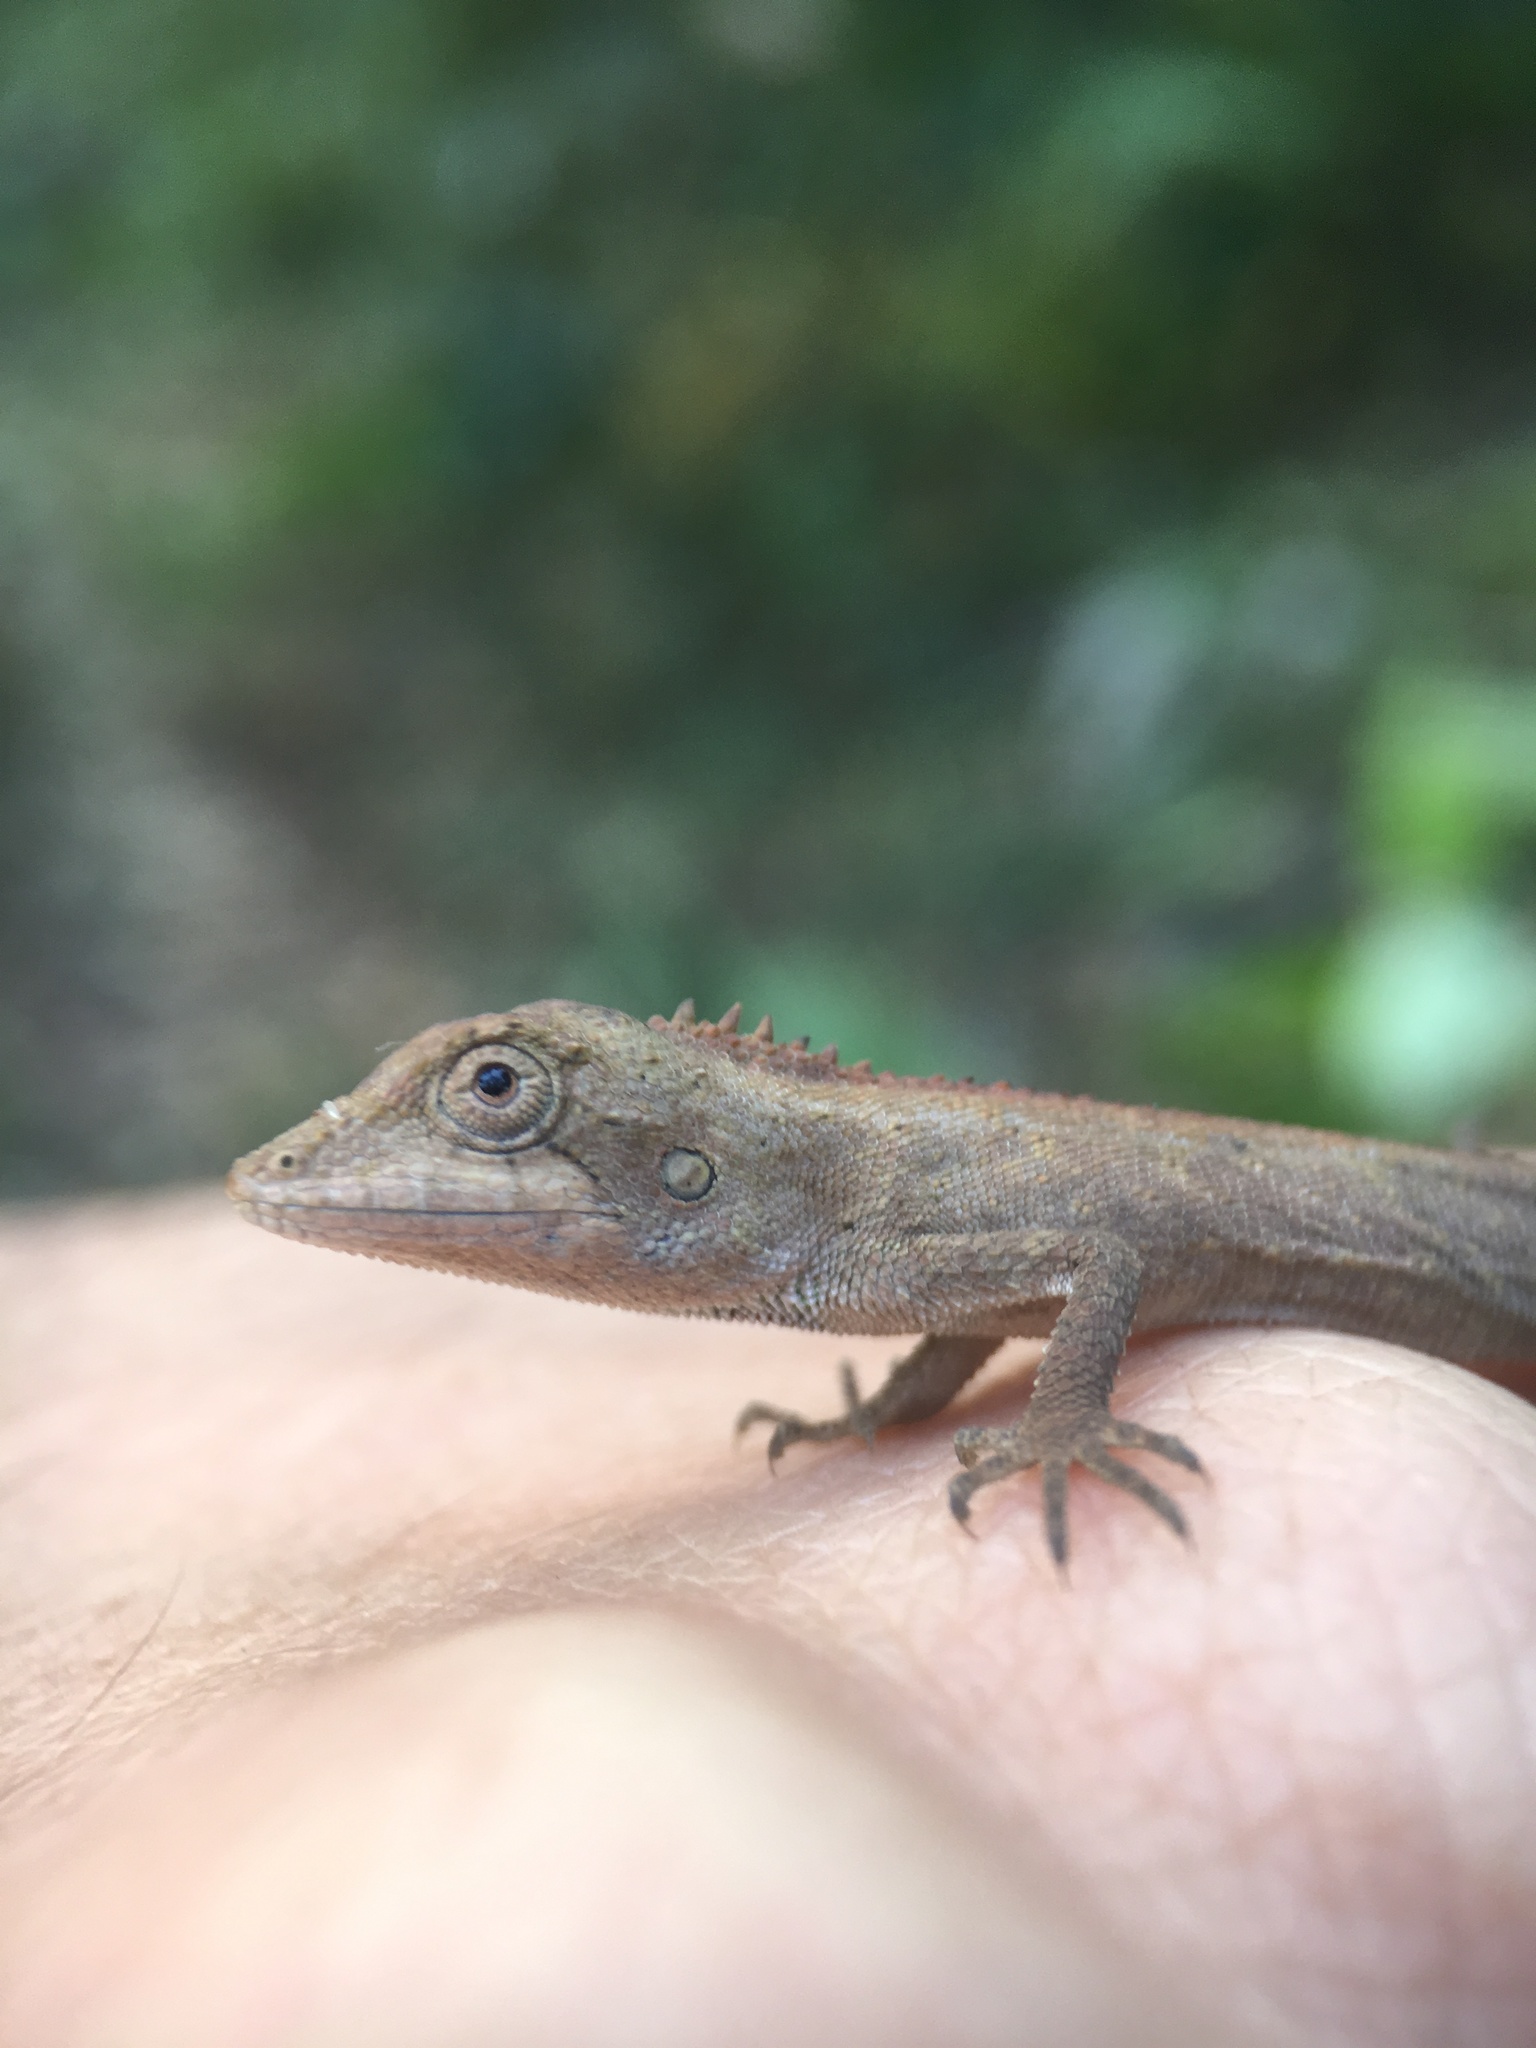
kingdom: Animalia
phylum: Chordata
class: Squamata
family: Agamidae
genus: Pseudocalotes
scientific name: Pseudocalotes microlepis
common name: Burmese false bloodsucker
